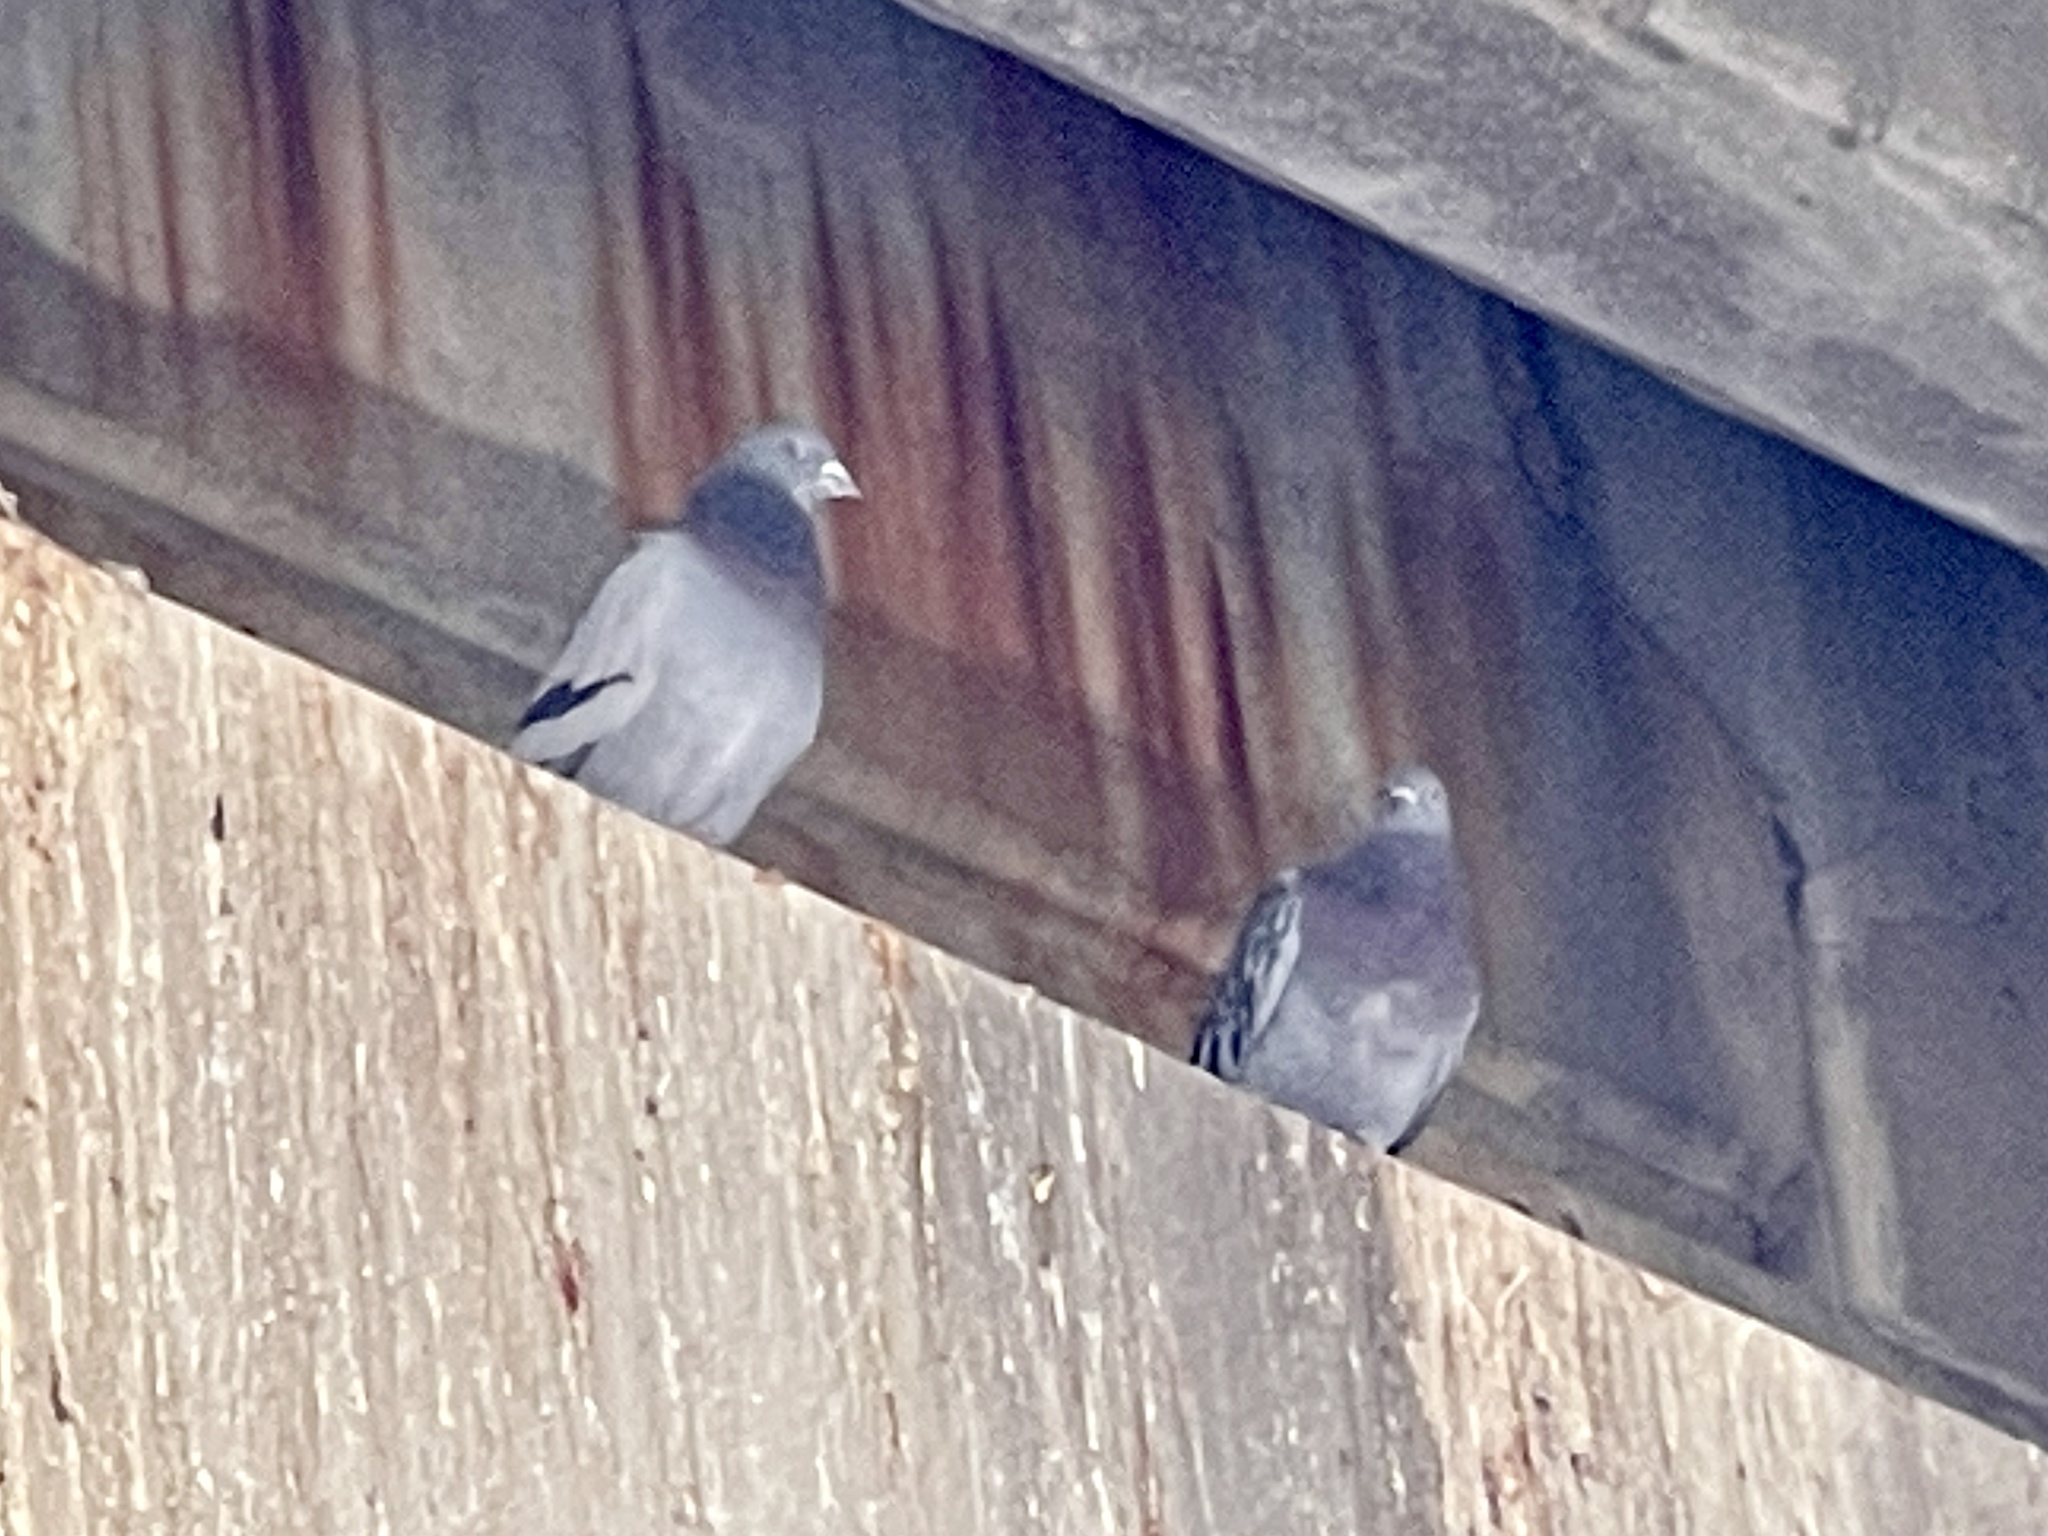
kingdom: Animalia
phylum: Chordata
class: Aves
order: Columbiformes
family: Columbidae
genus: Columba
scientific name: Columba livia
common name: Rock pigeon
